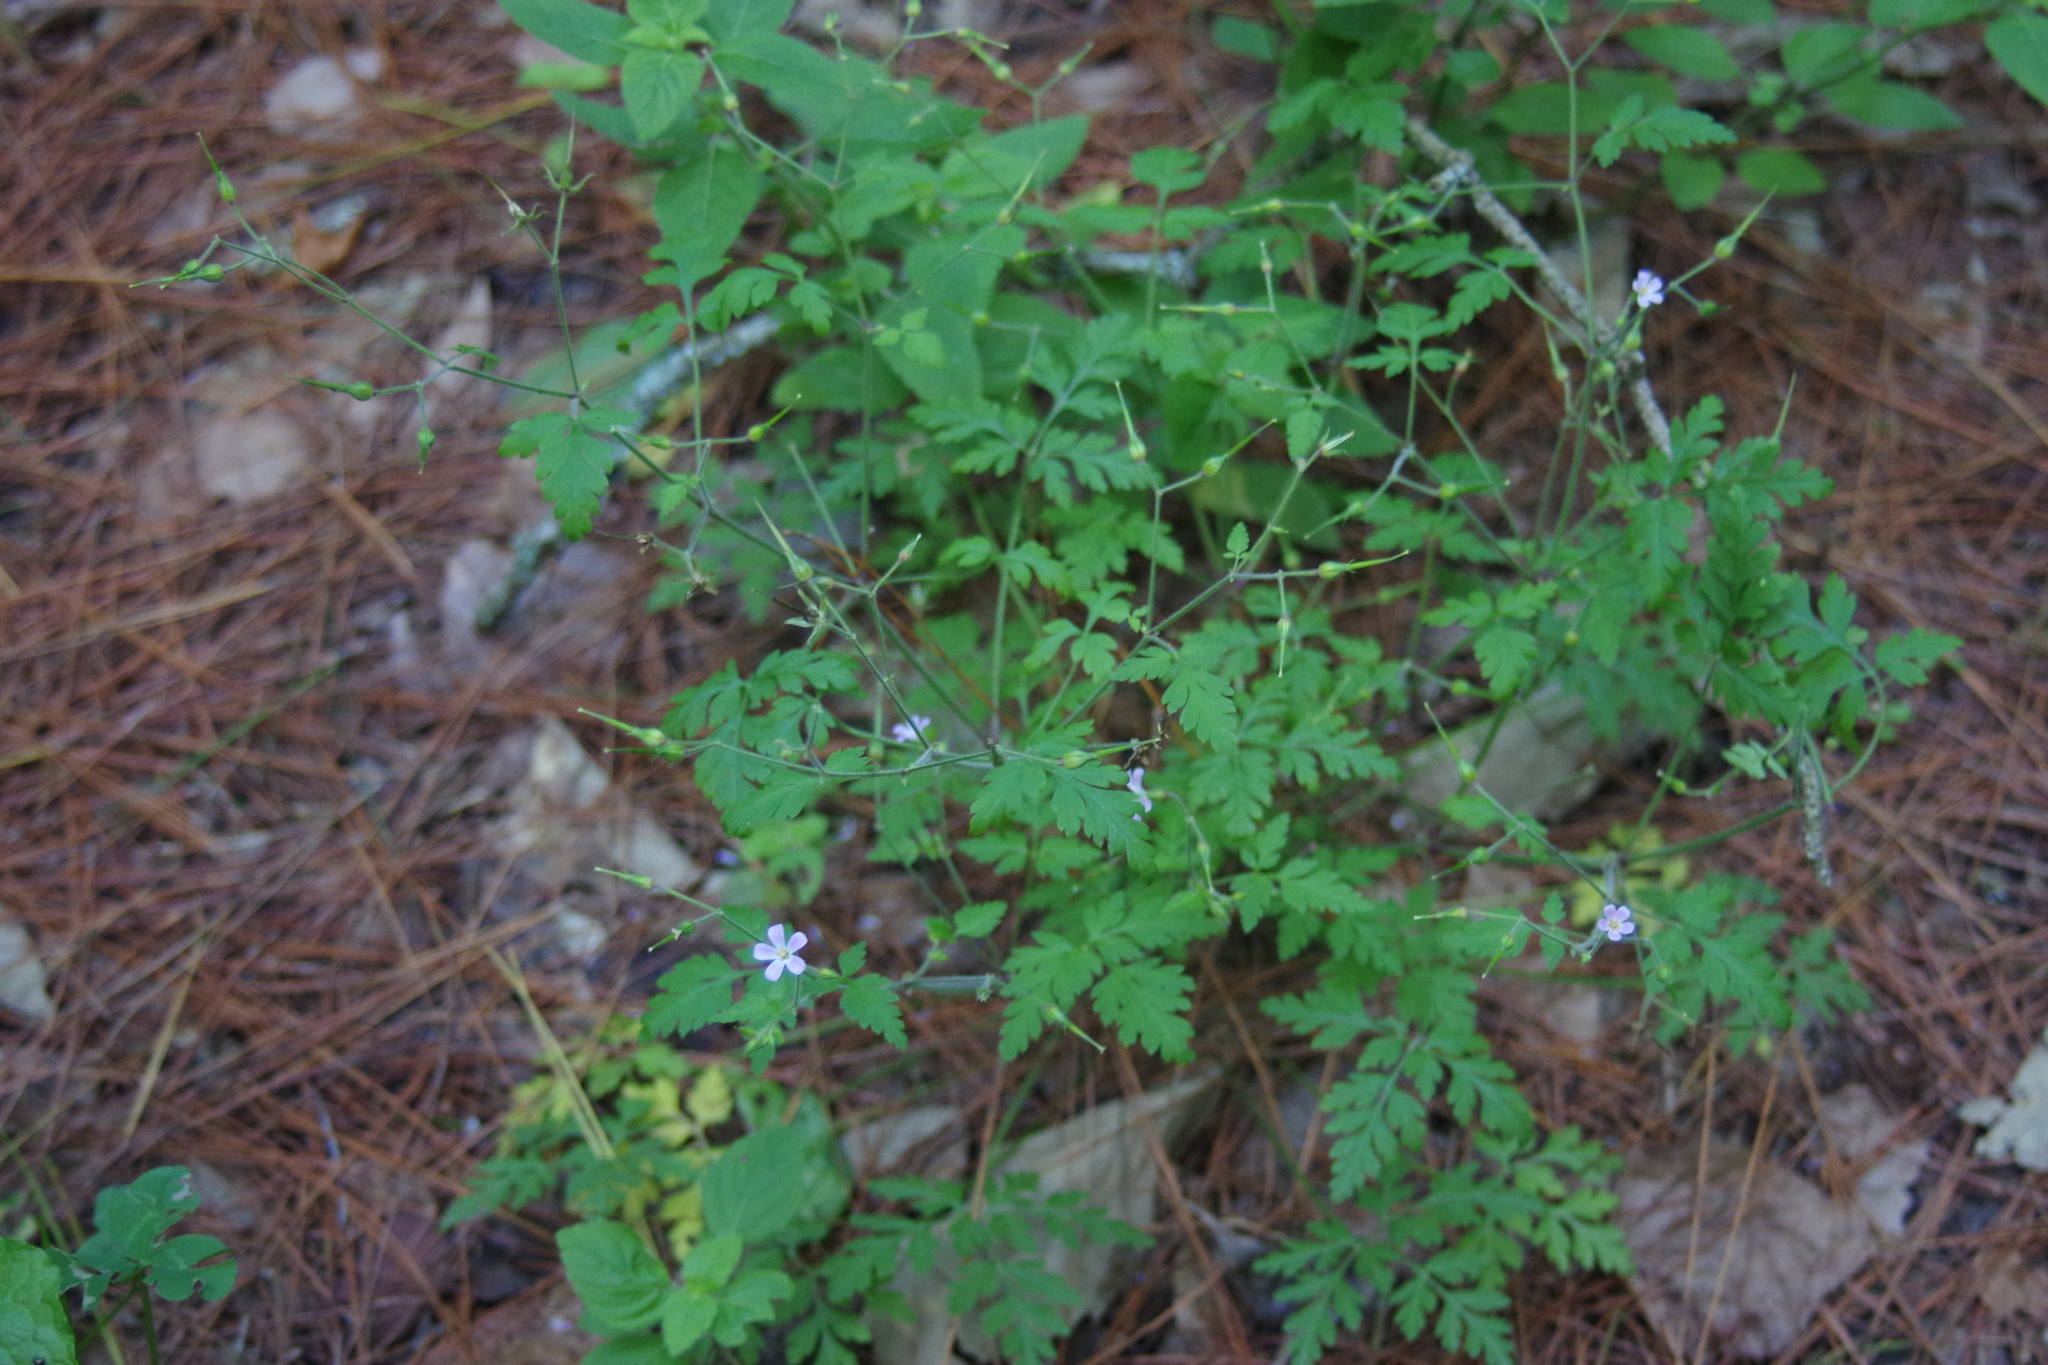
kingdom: Plantae
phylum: Tracheophyta
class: Magnoliopsida
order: Geraniales
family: Geraniaceae
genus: Geranium
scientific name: Geranium robertianum
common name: Herb-robert
